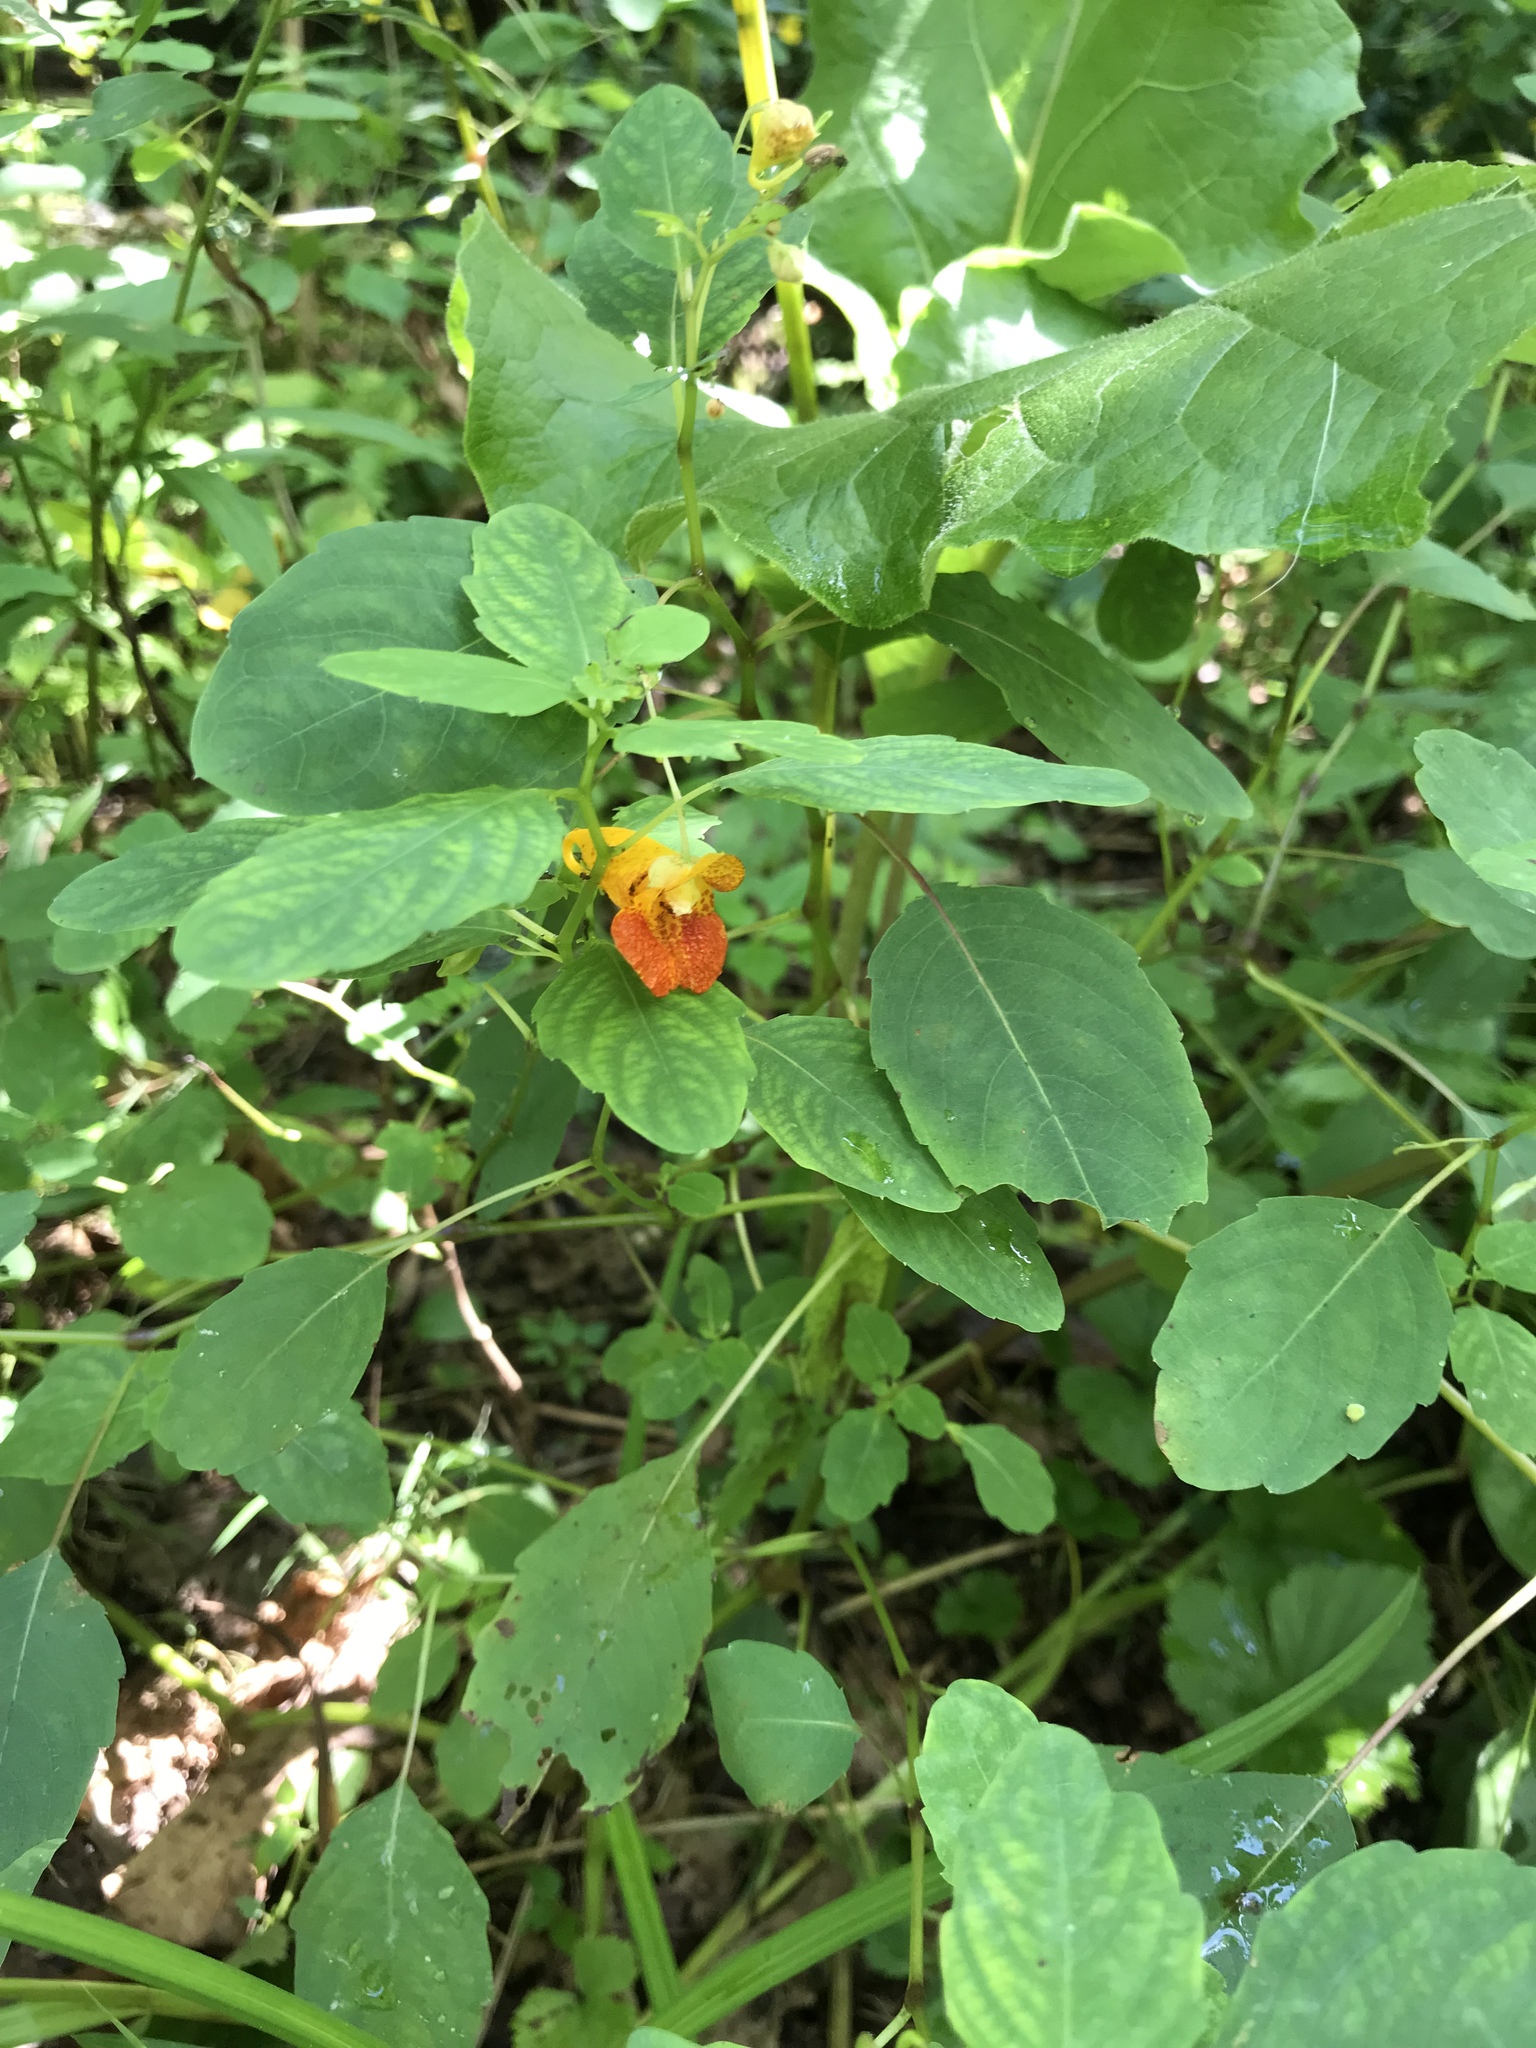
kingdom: Plantae
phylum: Tracheophyta
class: Magnoliopsida
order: Ericales
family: Balsaminaceae
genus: Impatiens
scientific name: Impatiens capensis
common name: Orange balsam
